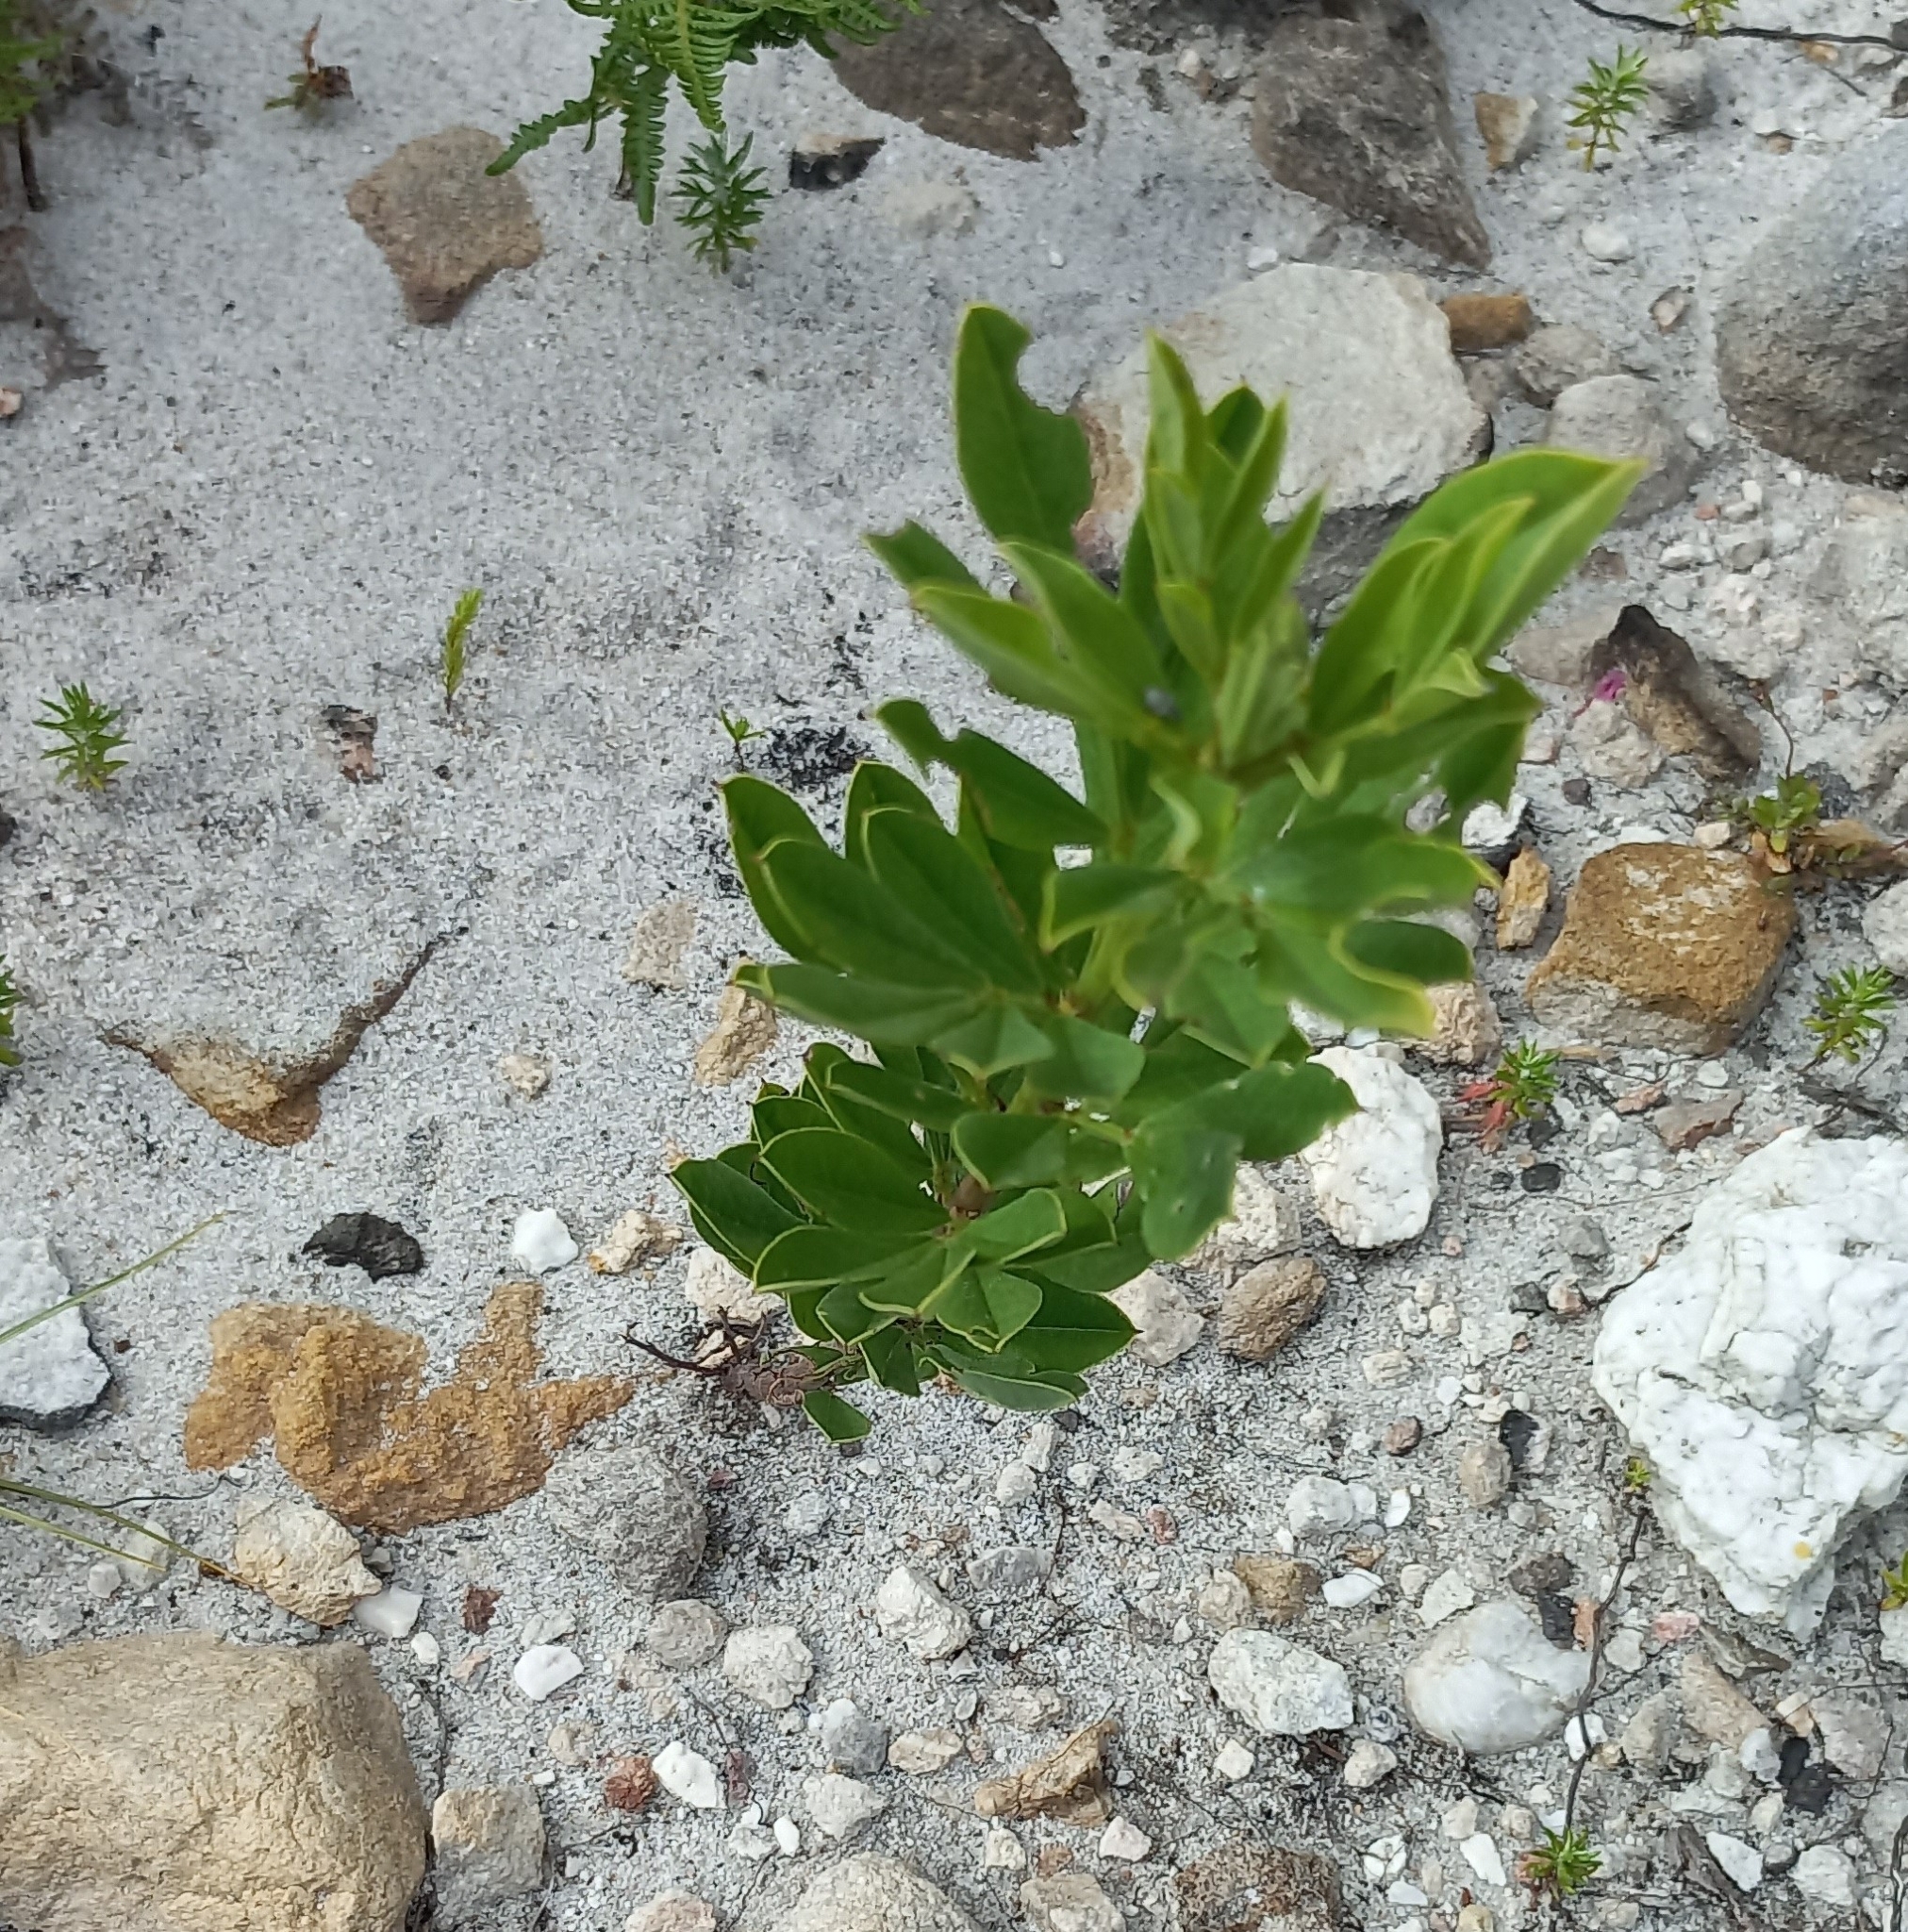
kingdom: Plantae
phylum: Tracheophyta
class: Magnoliopsida
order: Fabales
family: Fabaceae
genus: Indigofera
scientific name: Indigofera cytisoides
